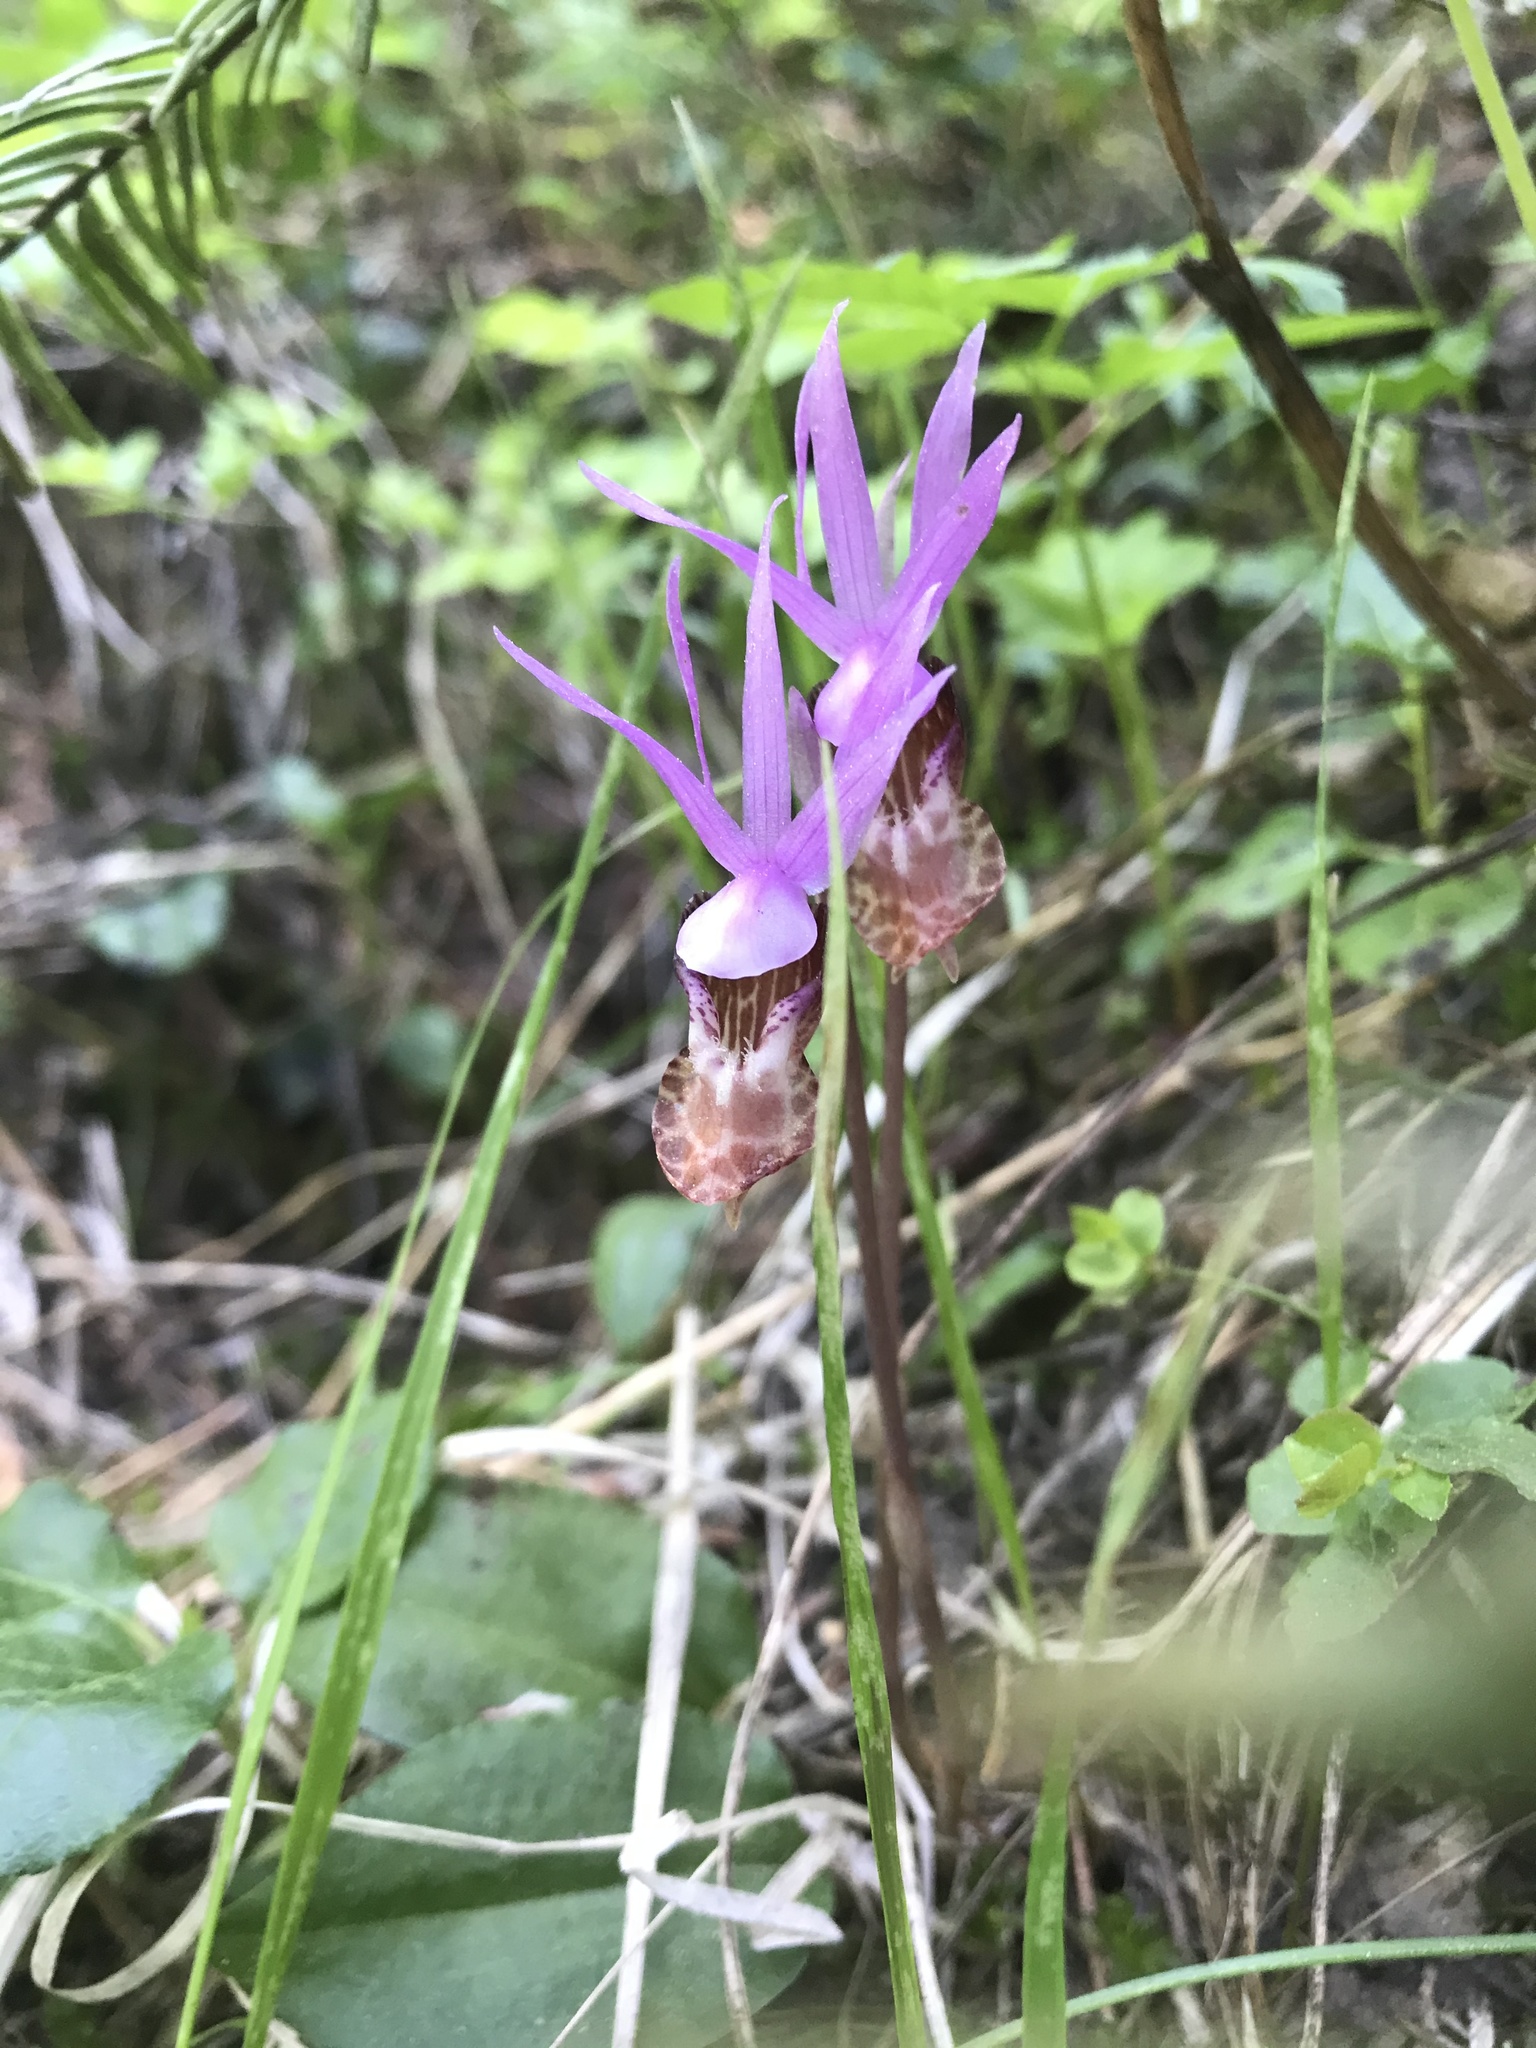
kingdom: Plantae
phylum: Tracheophyta
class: Liliopsida
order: Asparagales
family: Orchidaceae
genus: Calypso
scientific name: Calypso bulbosa
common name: Calypso
